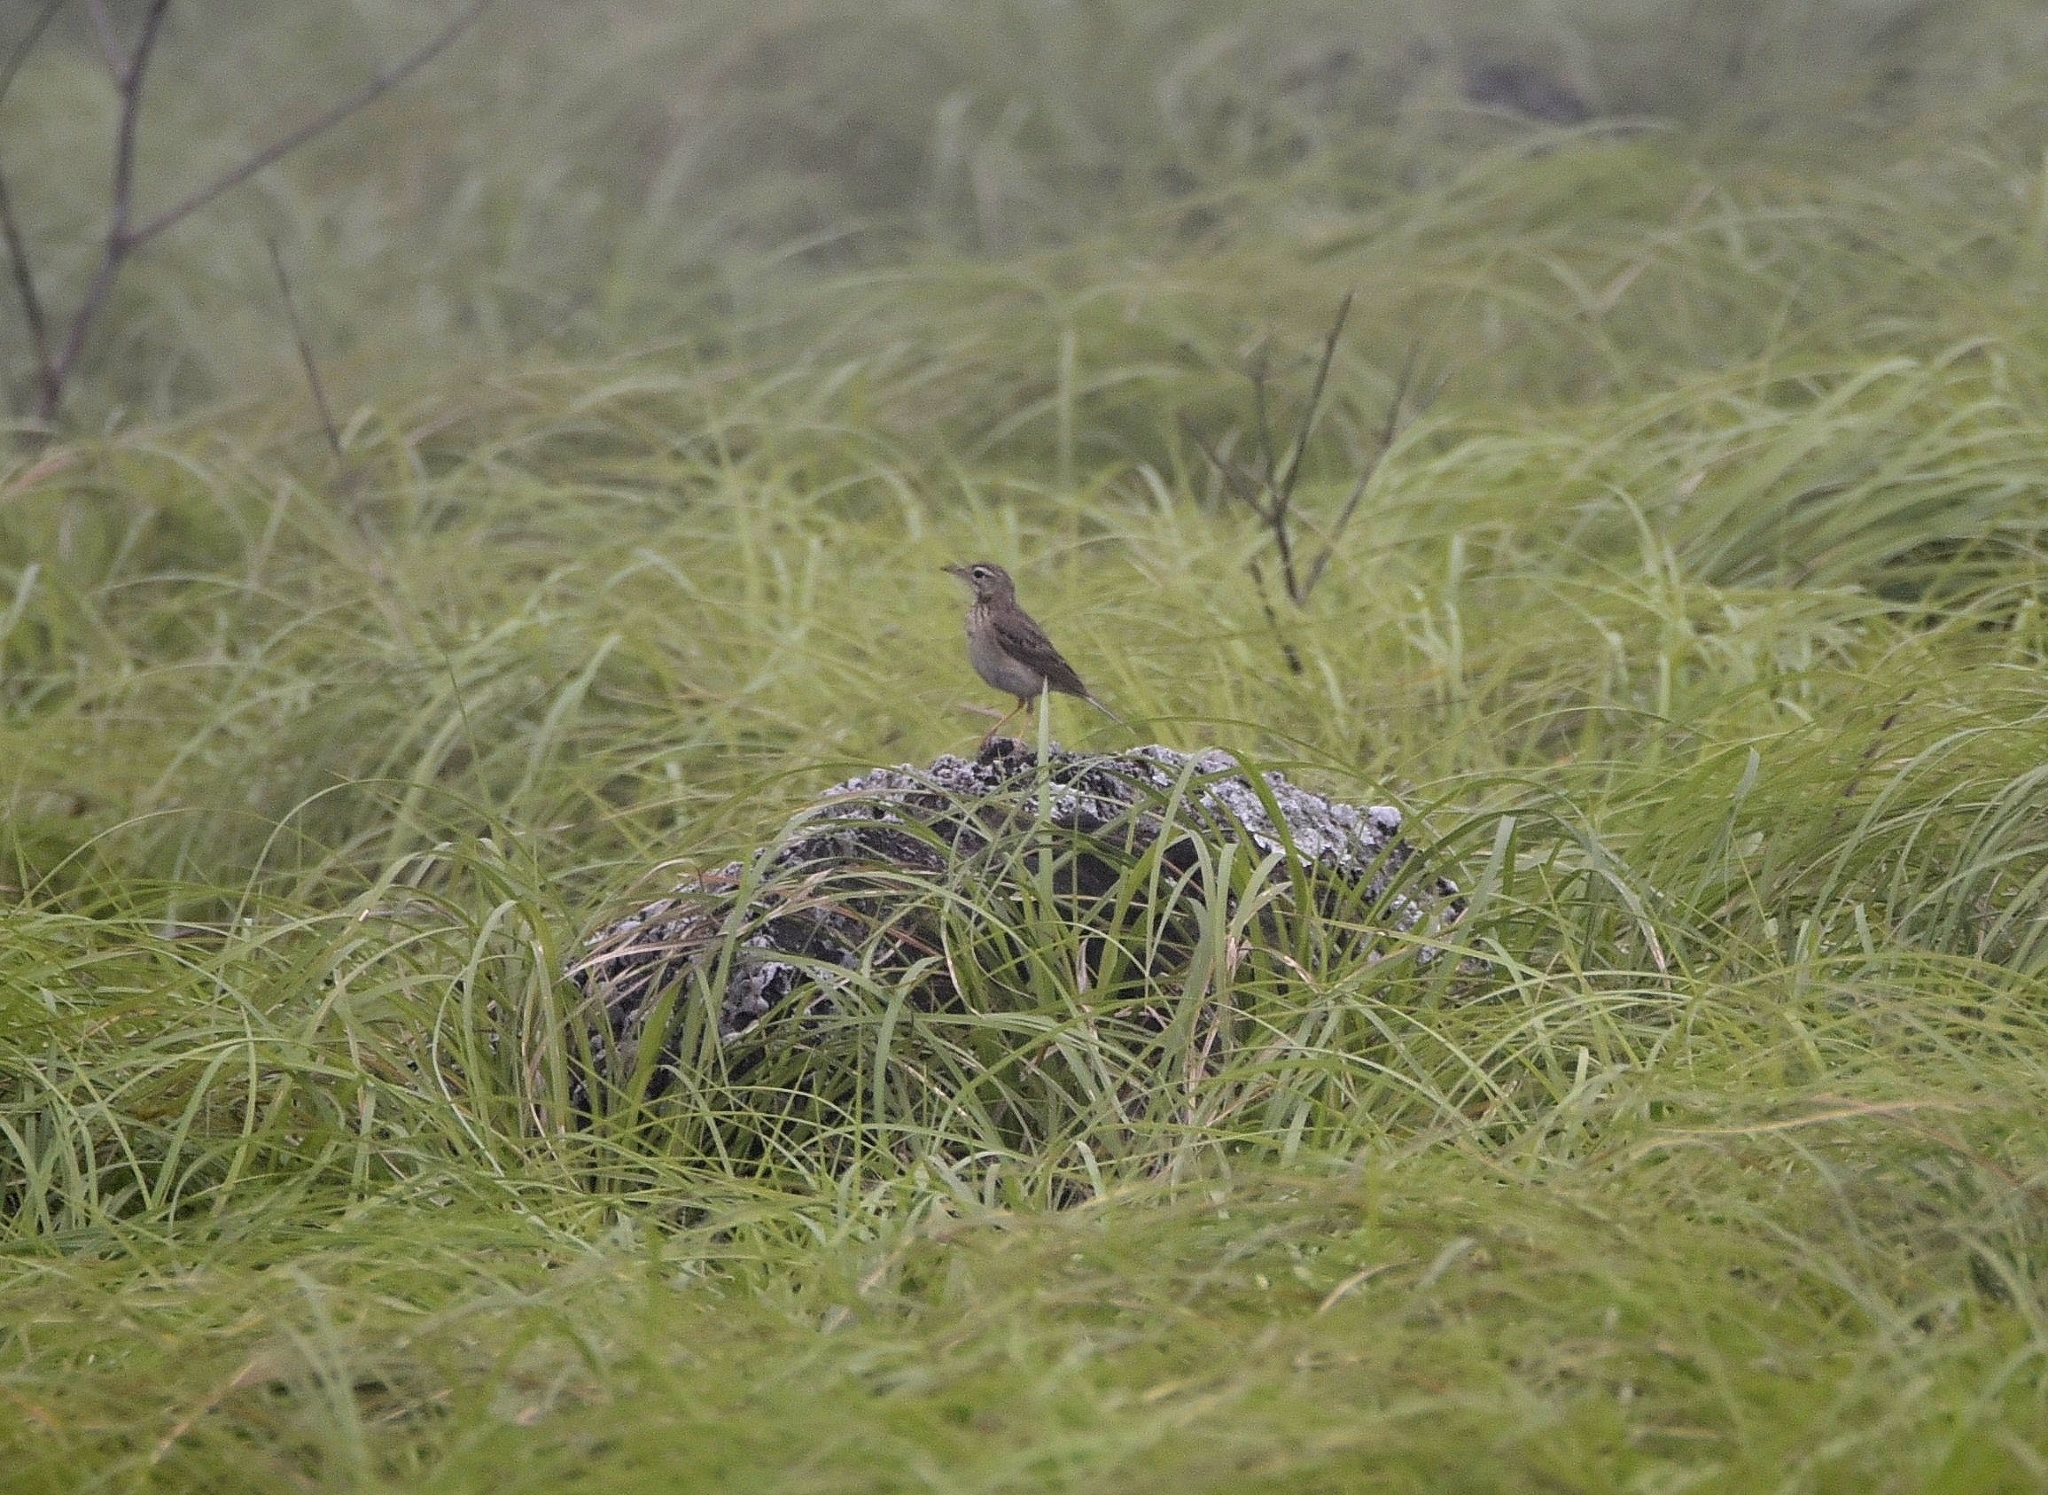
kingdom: Animalia
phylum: Chordata
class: Aves
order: Passeriformes
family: Motacillidae
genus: Anthus
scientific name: Anthus rufulus
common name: Paddyfield pipit
